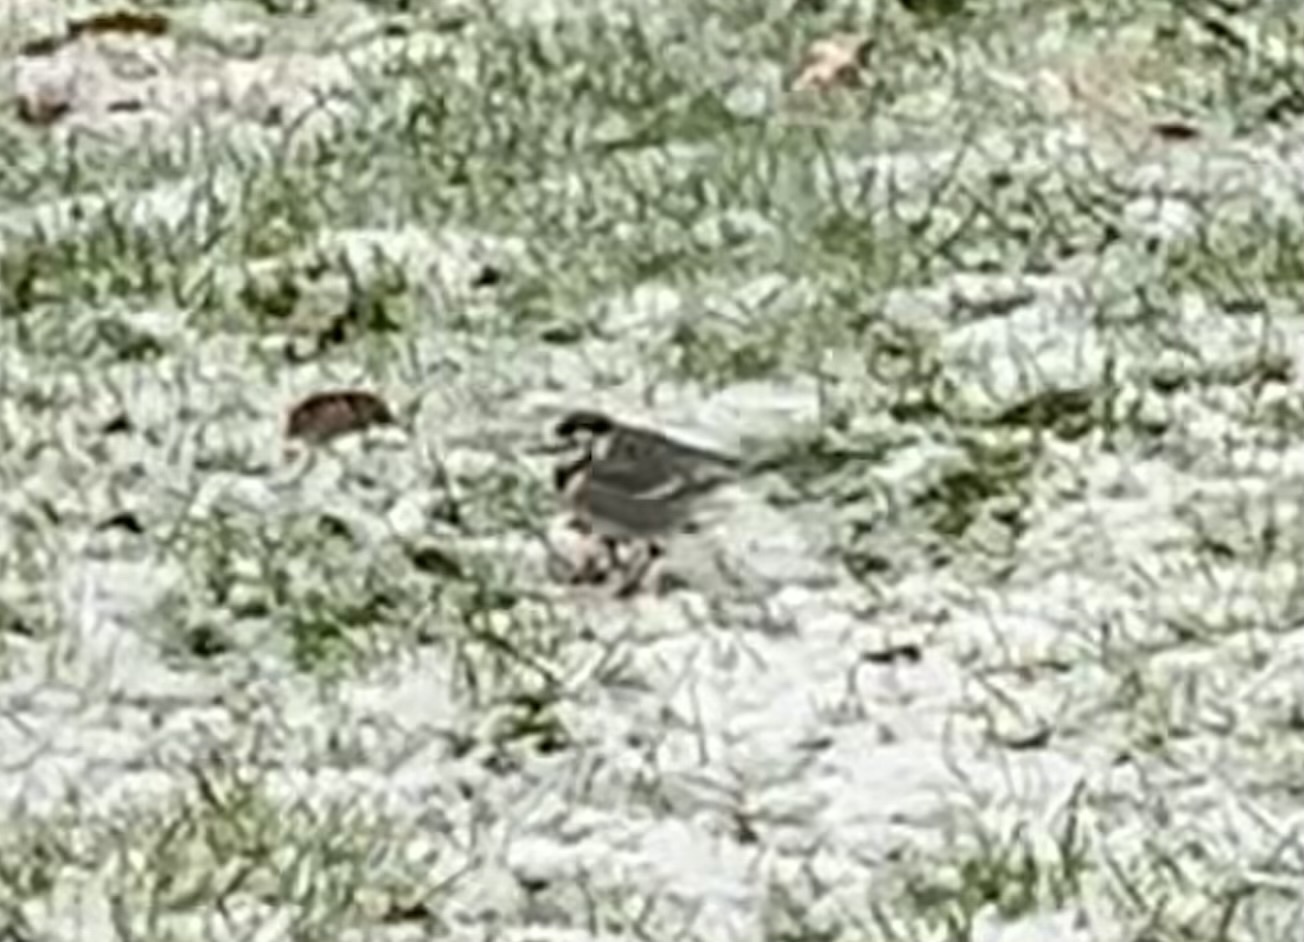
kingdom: Animalia
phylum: Chordata
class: Aves
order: Passeriformes
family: Motacillidae
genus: Motacilla
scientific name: Motacilla alba
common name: White wagtail
